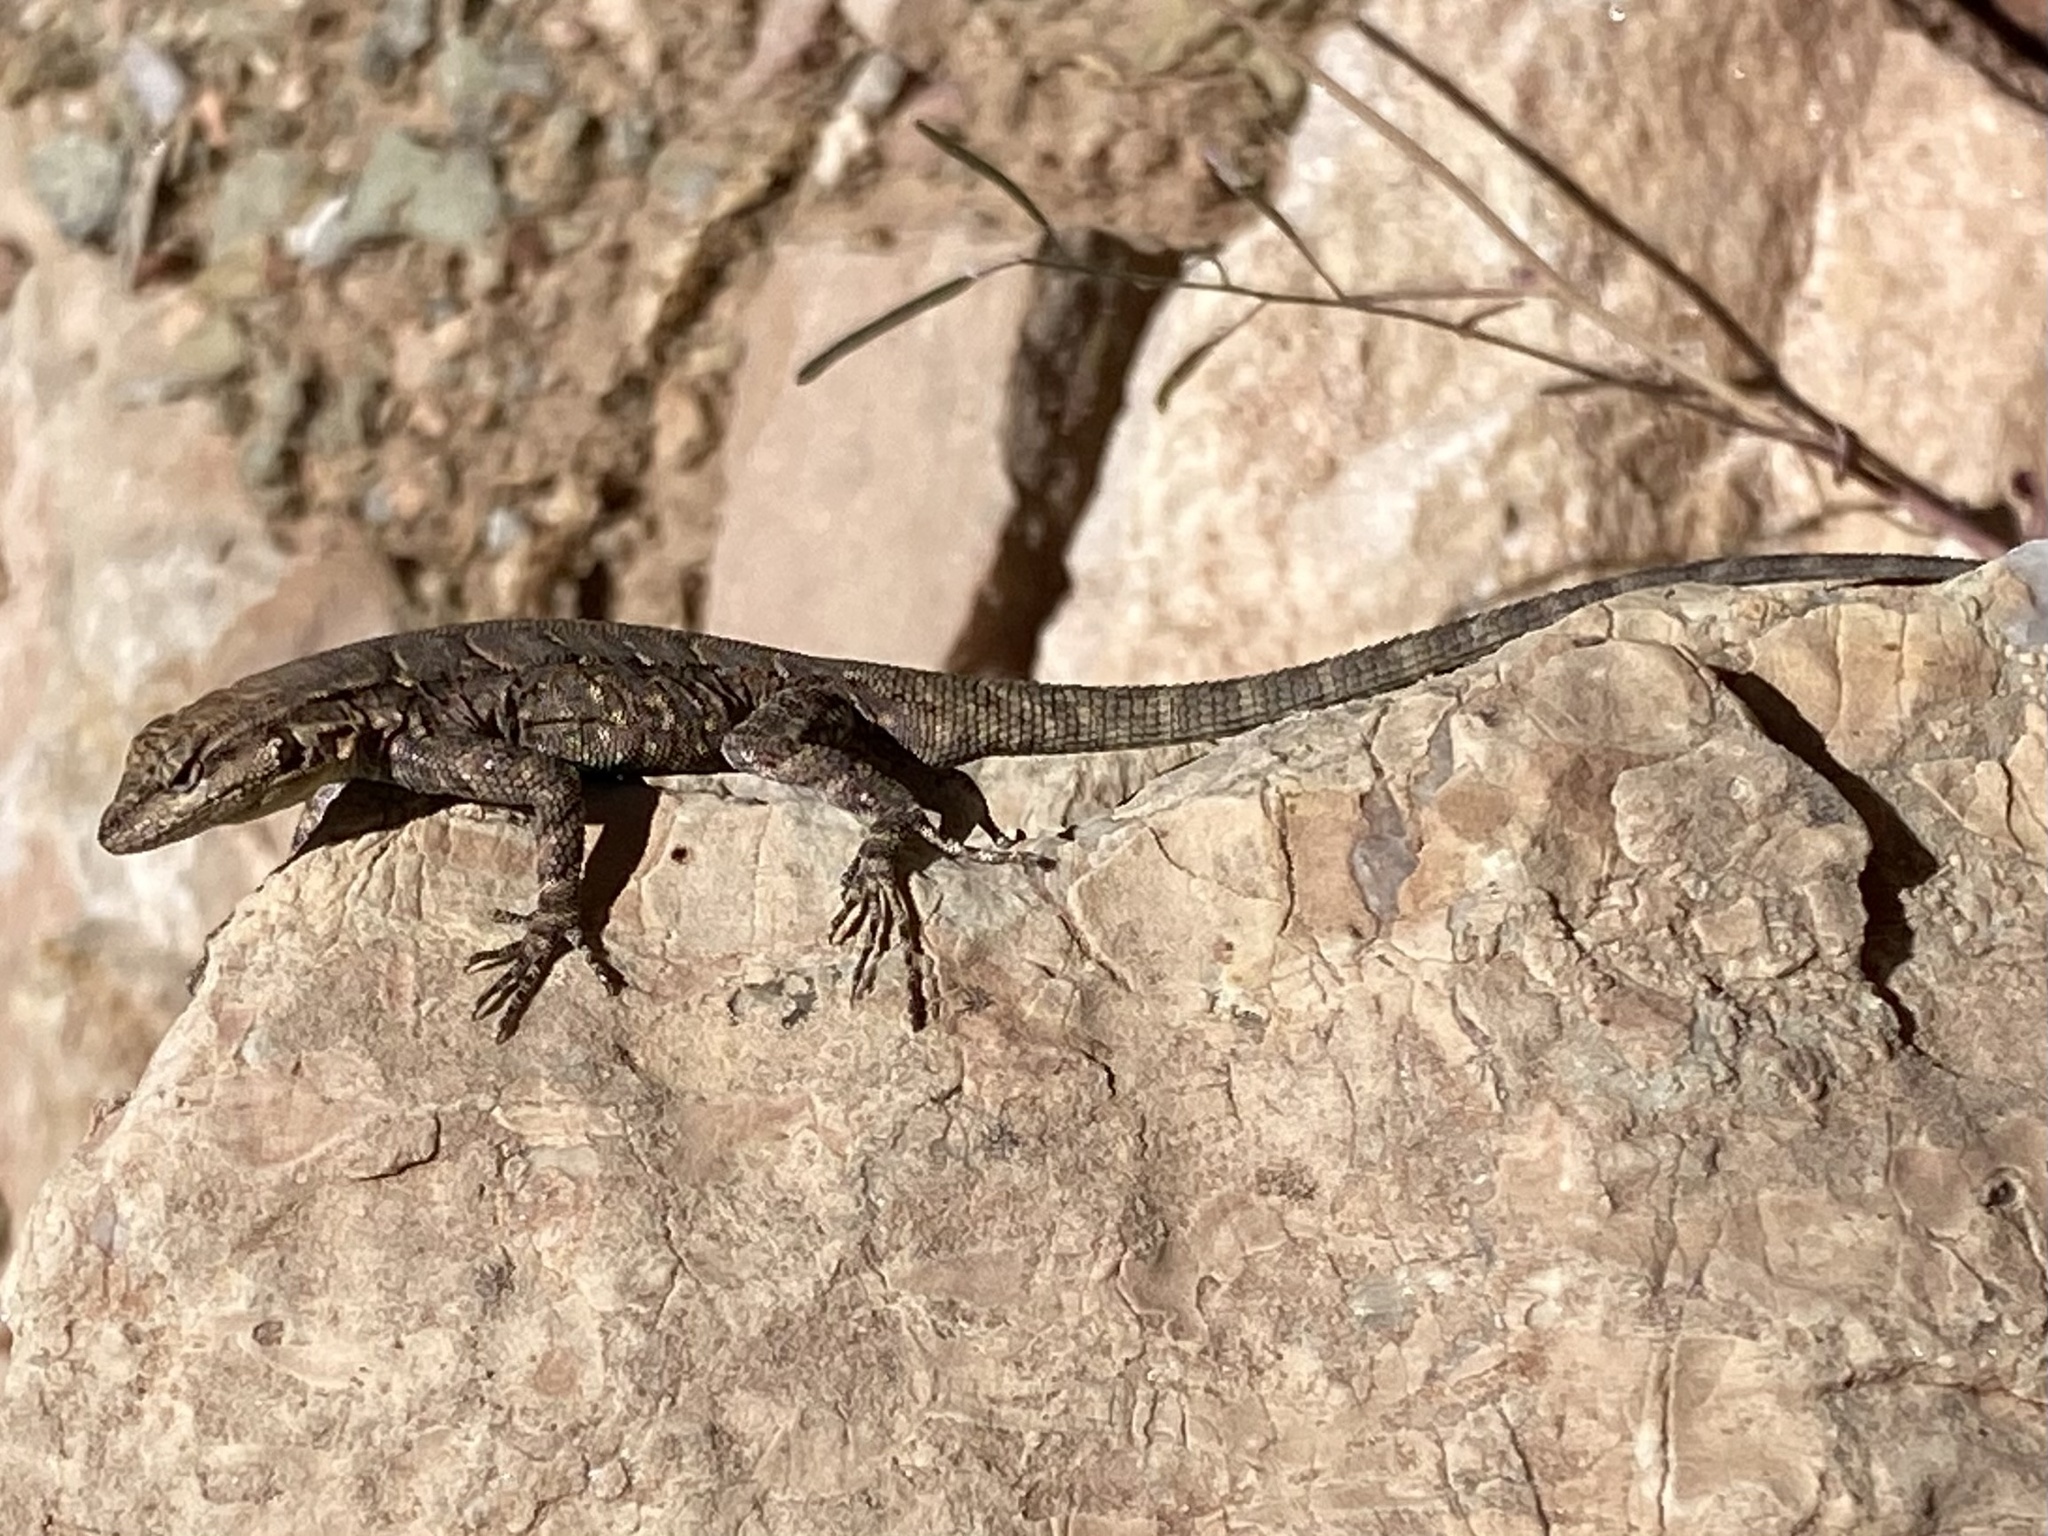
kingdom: Animalia
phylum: Chordata
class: Squamata
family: Phrynosomatidae
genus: Urosaurus
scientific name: Urosaurus ornatus
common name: Ornate tree lizard
